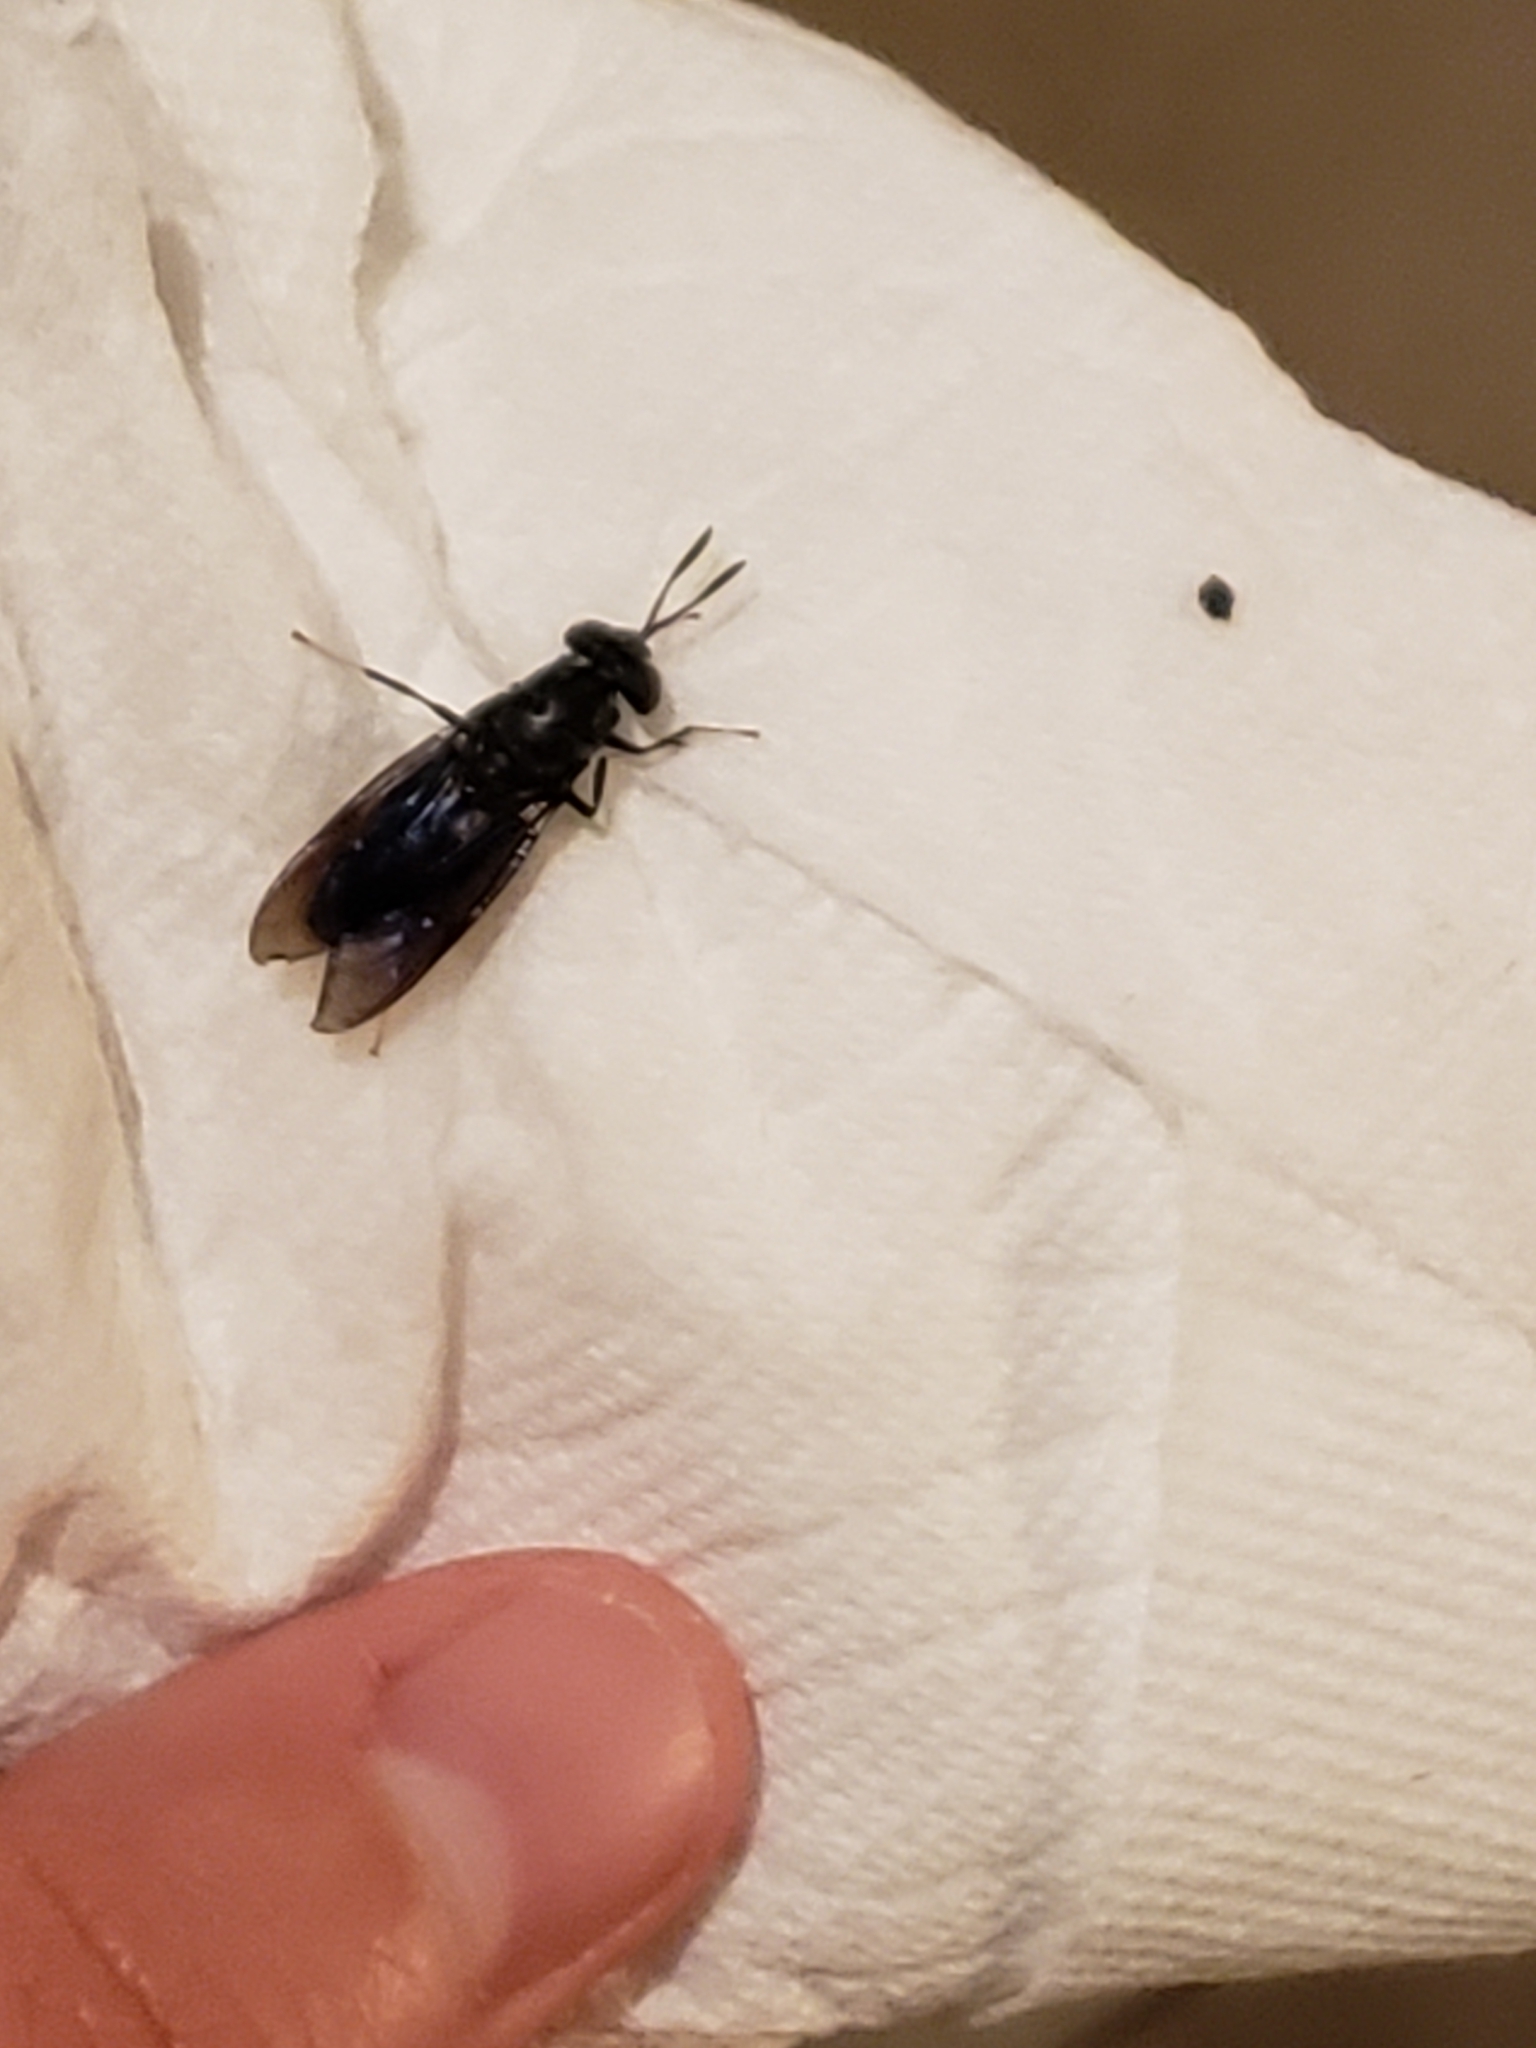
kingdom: Animalia
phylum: Arthropoda
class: Insecta
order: Diptera
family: Stratiomyidae
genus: Hermetia
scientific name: Hermetia illucens
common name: Black soldier fly
